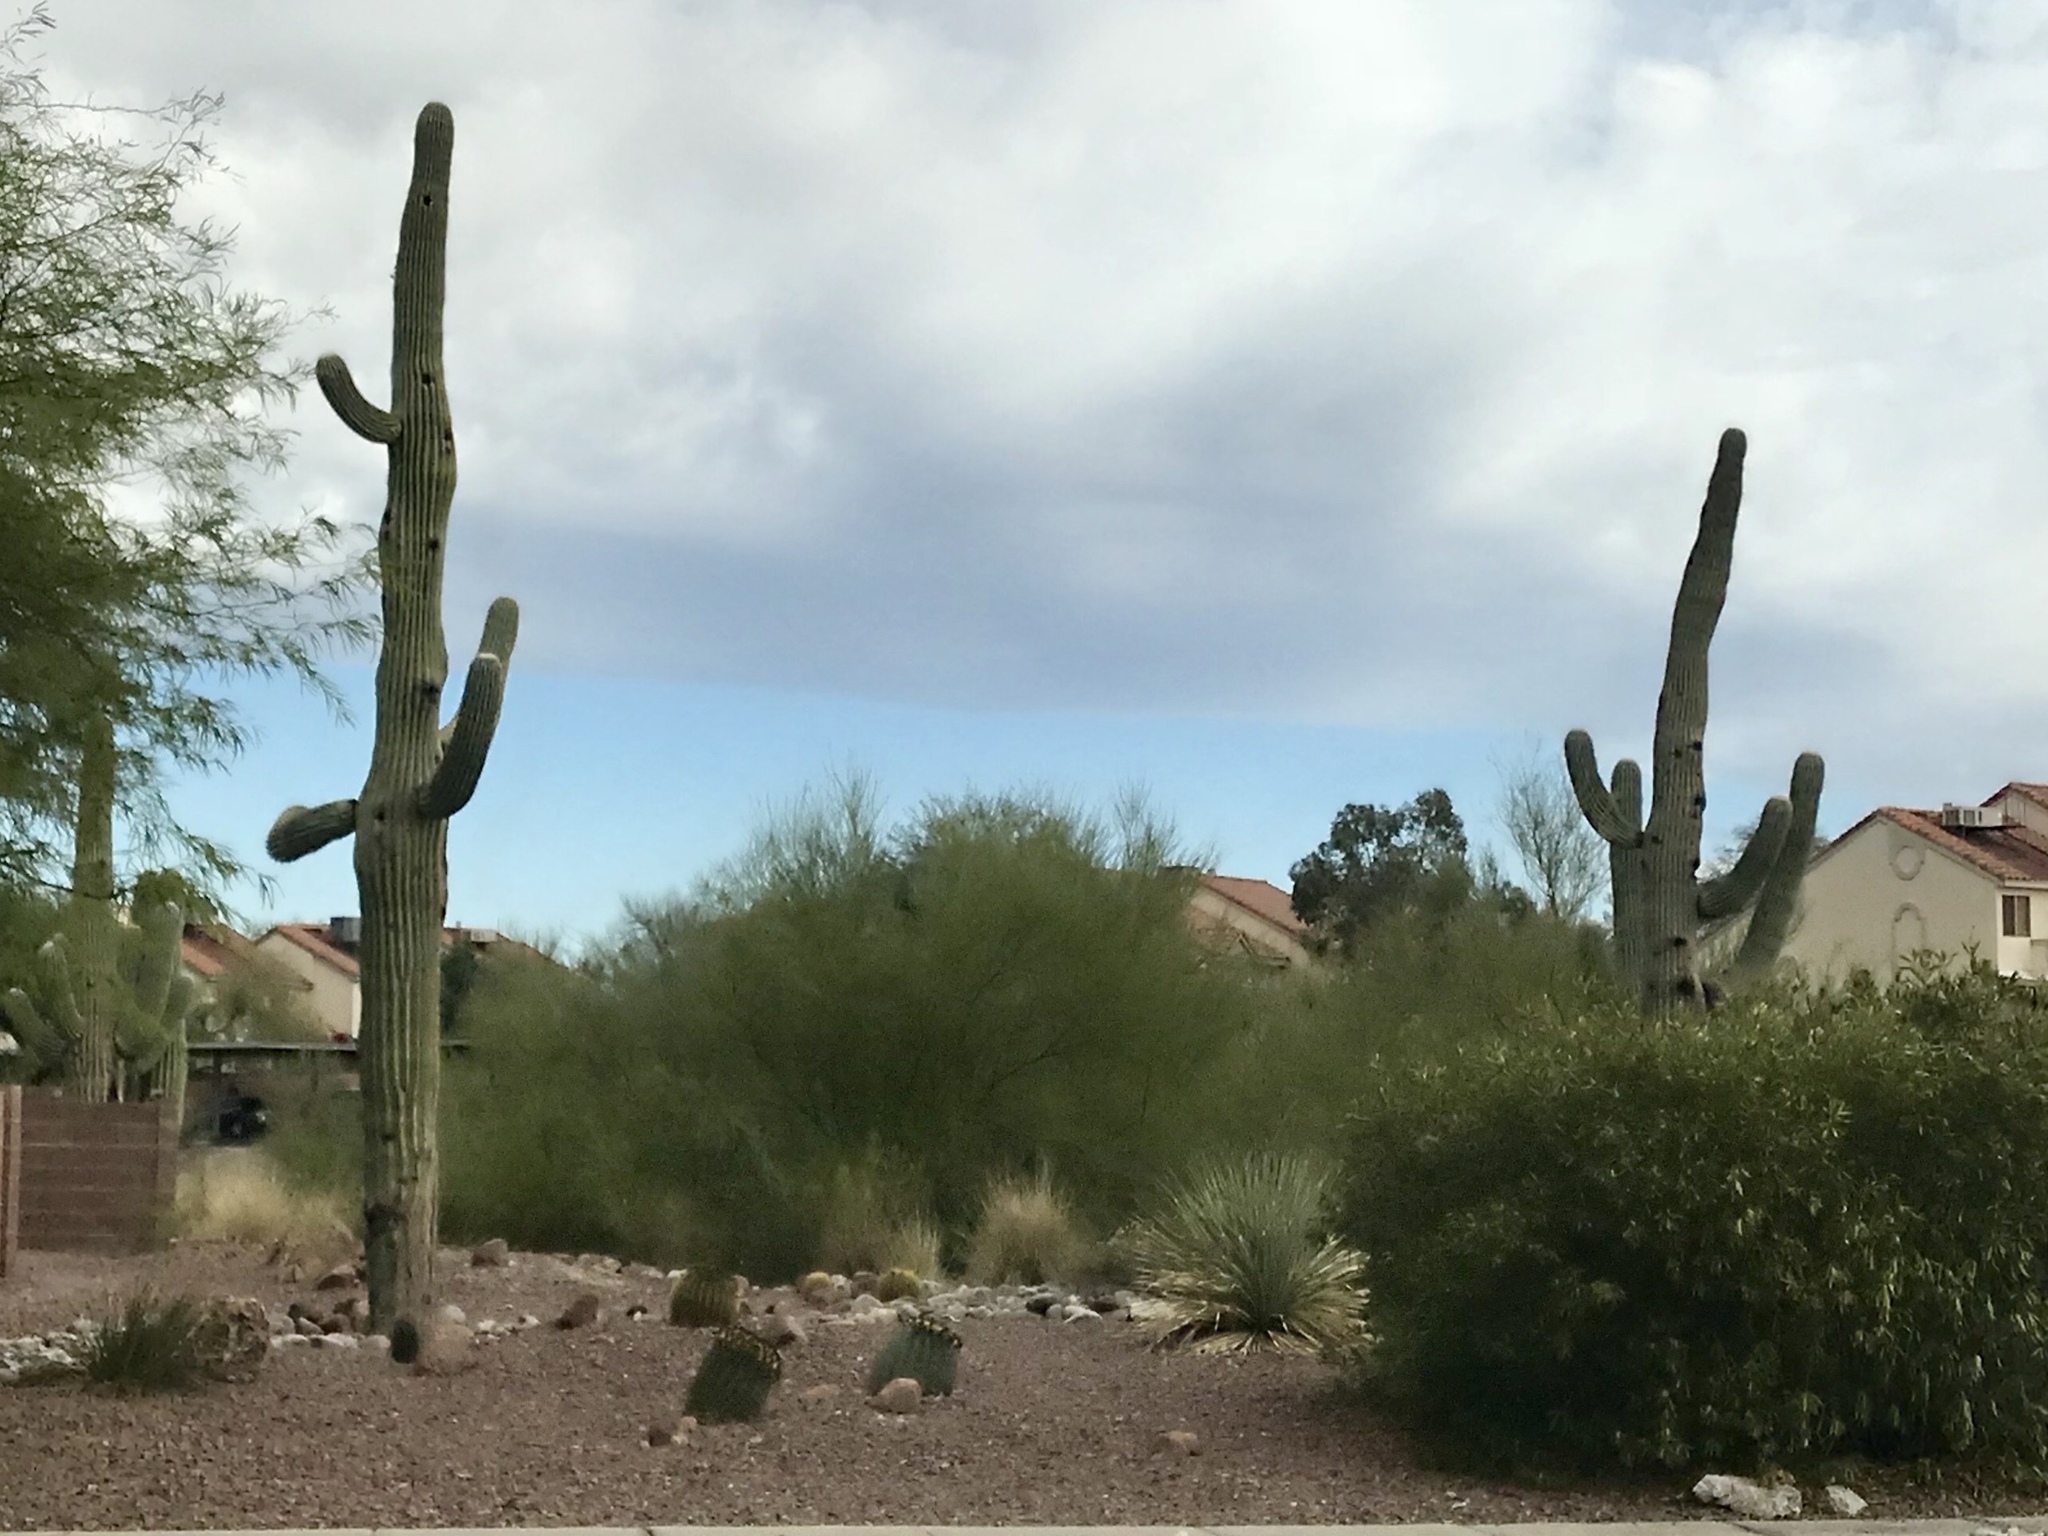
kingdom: Plantae
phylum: Tracheophyta
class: Magnoliopsida
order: Caryophyllales
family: Cactaceae
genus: Carnegiea
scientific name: Carnegiea gigantea
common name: Saguaro
